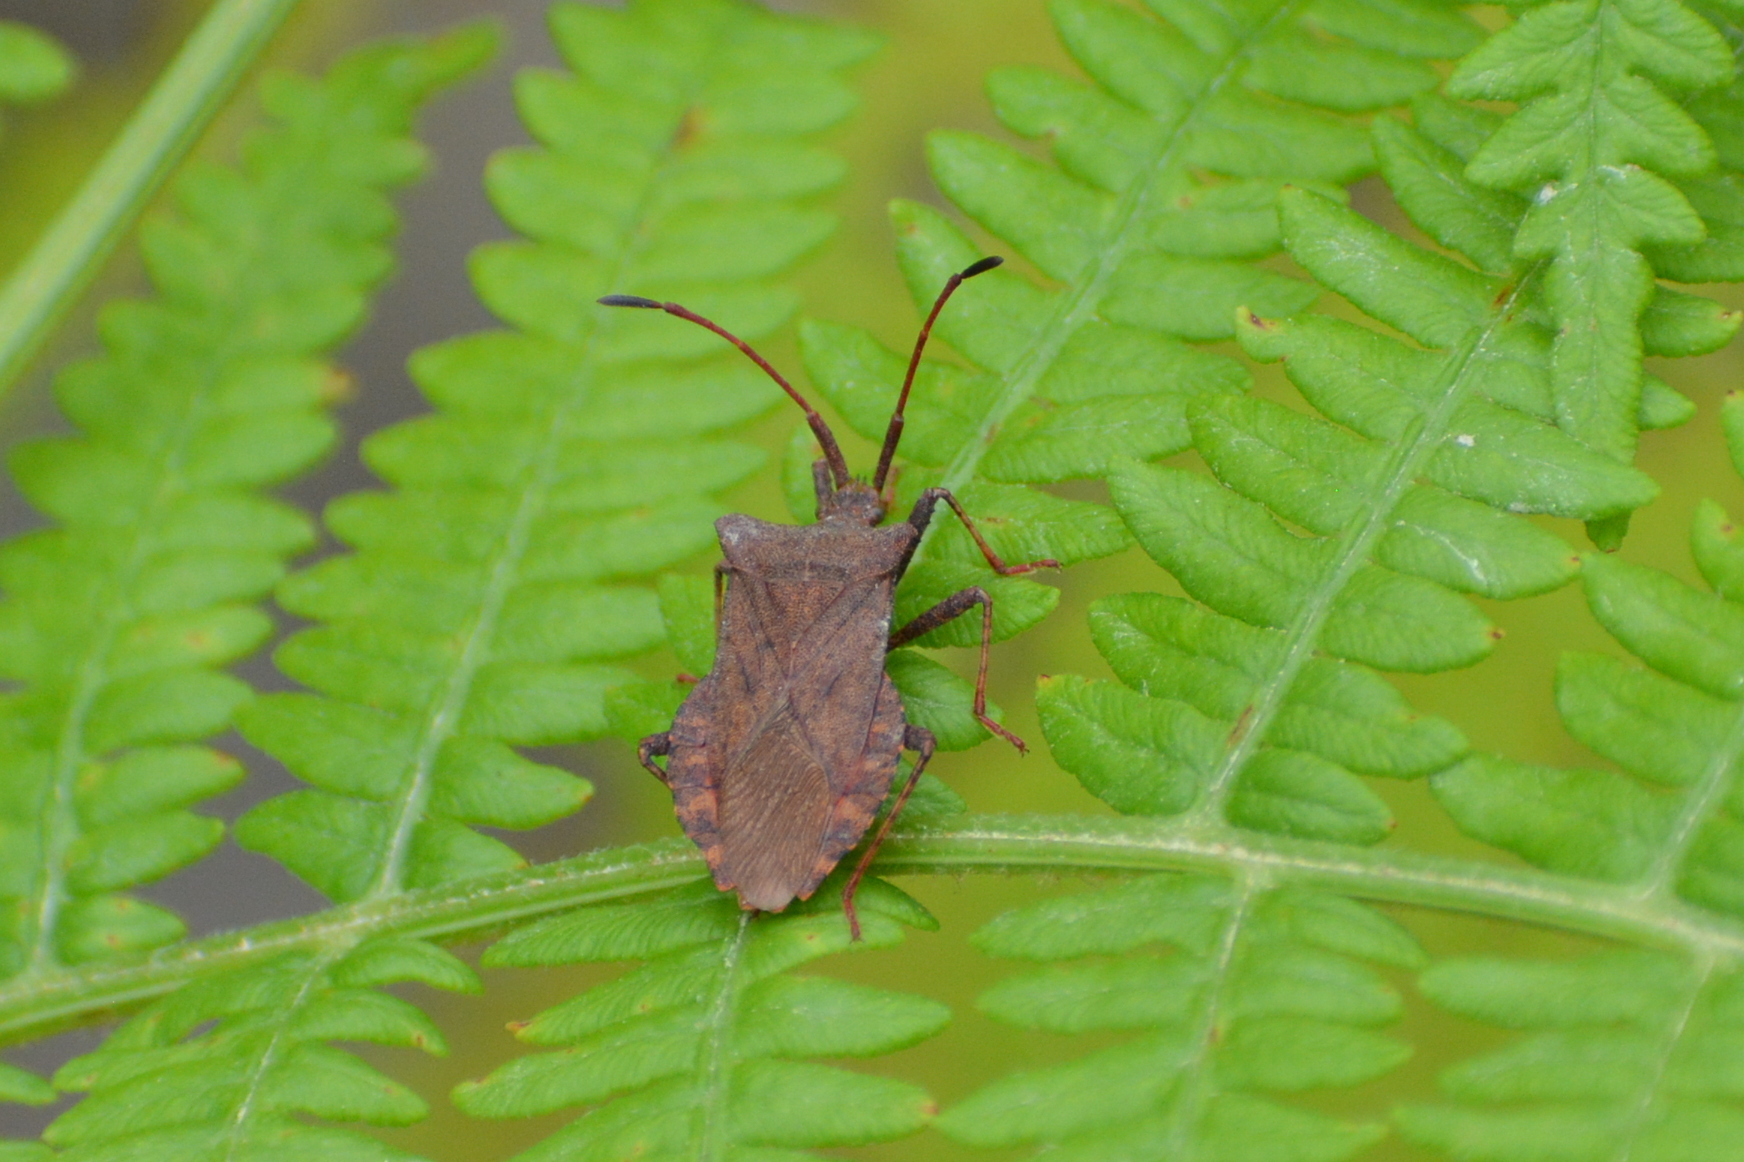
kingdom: Animalia
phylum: Arthropoda
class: Insecta
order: Hemiptera
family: Coreidae
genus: Coreus
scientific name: Coreus marginatus
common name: Dock bug
